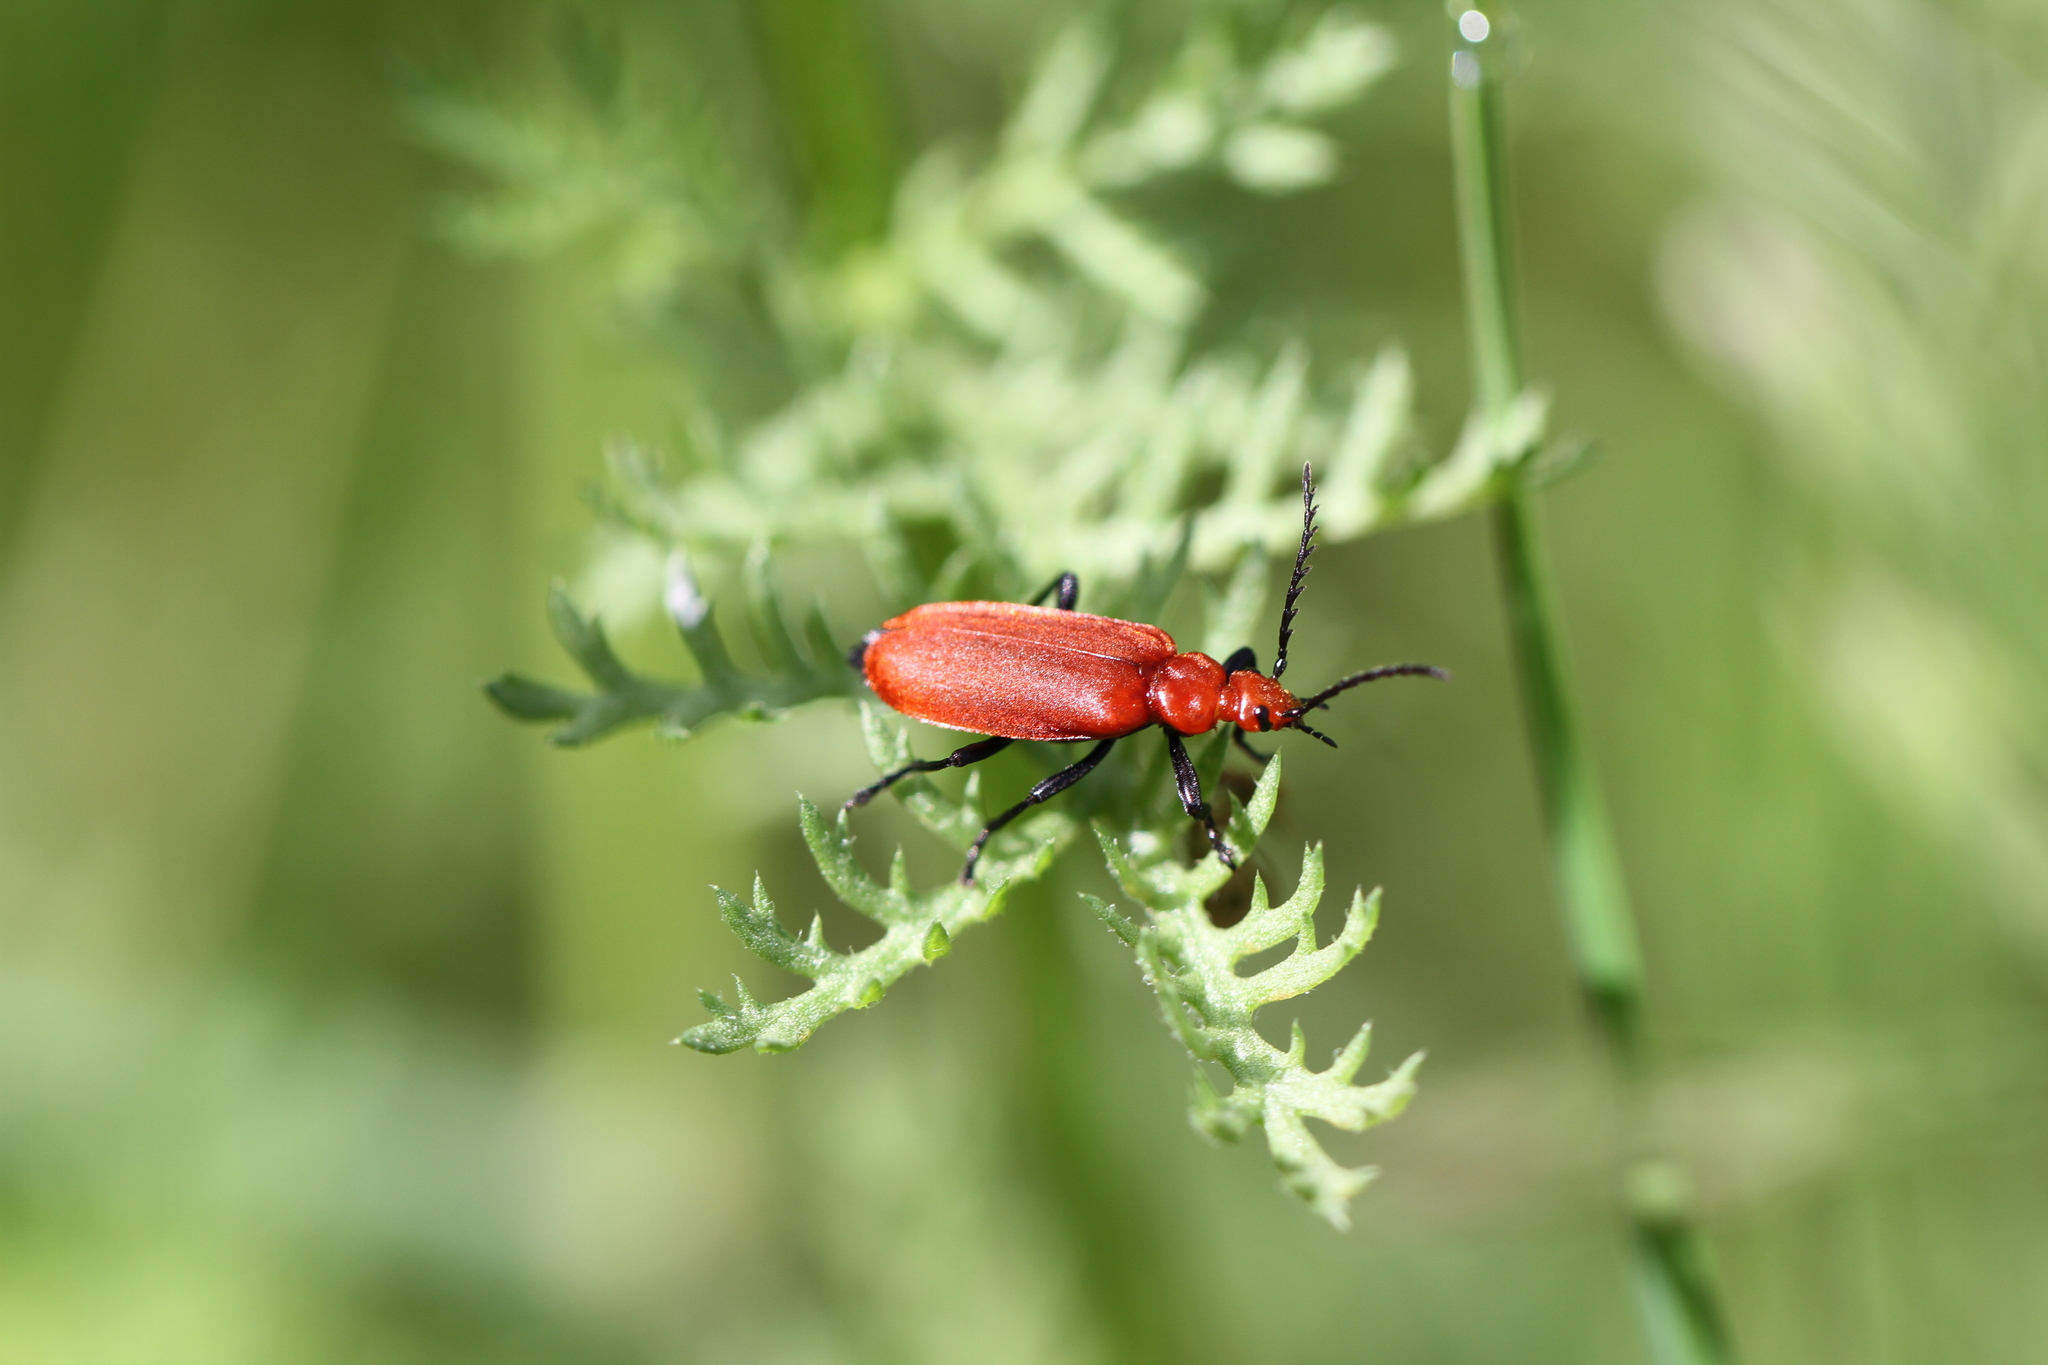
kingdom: Animalia
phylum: Arthropoda
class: Insecta
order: Coleoptera
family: Pyrochroidae
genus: Pyrochroa
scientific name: Pyrochroa serraticornis
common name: Red-headed cardinal beetle
